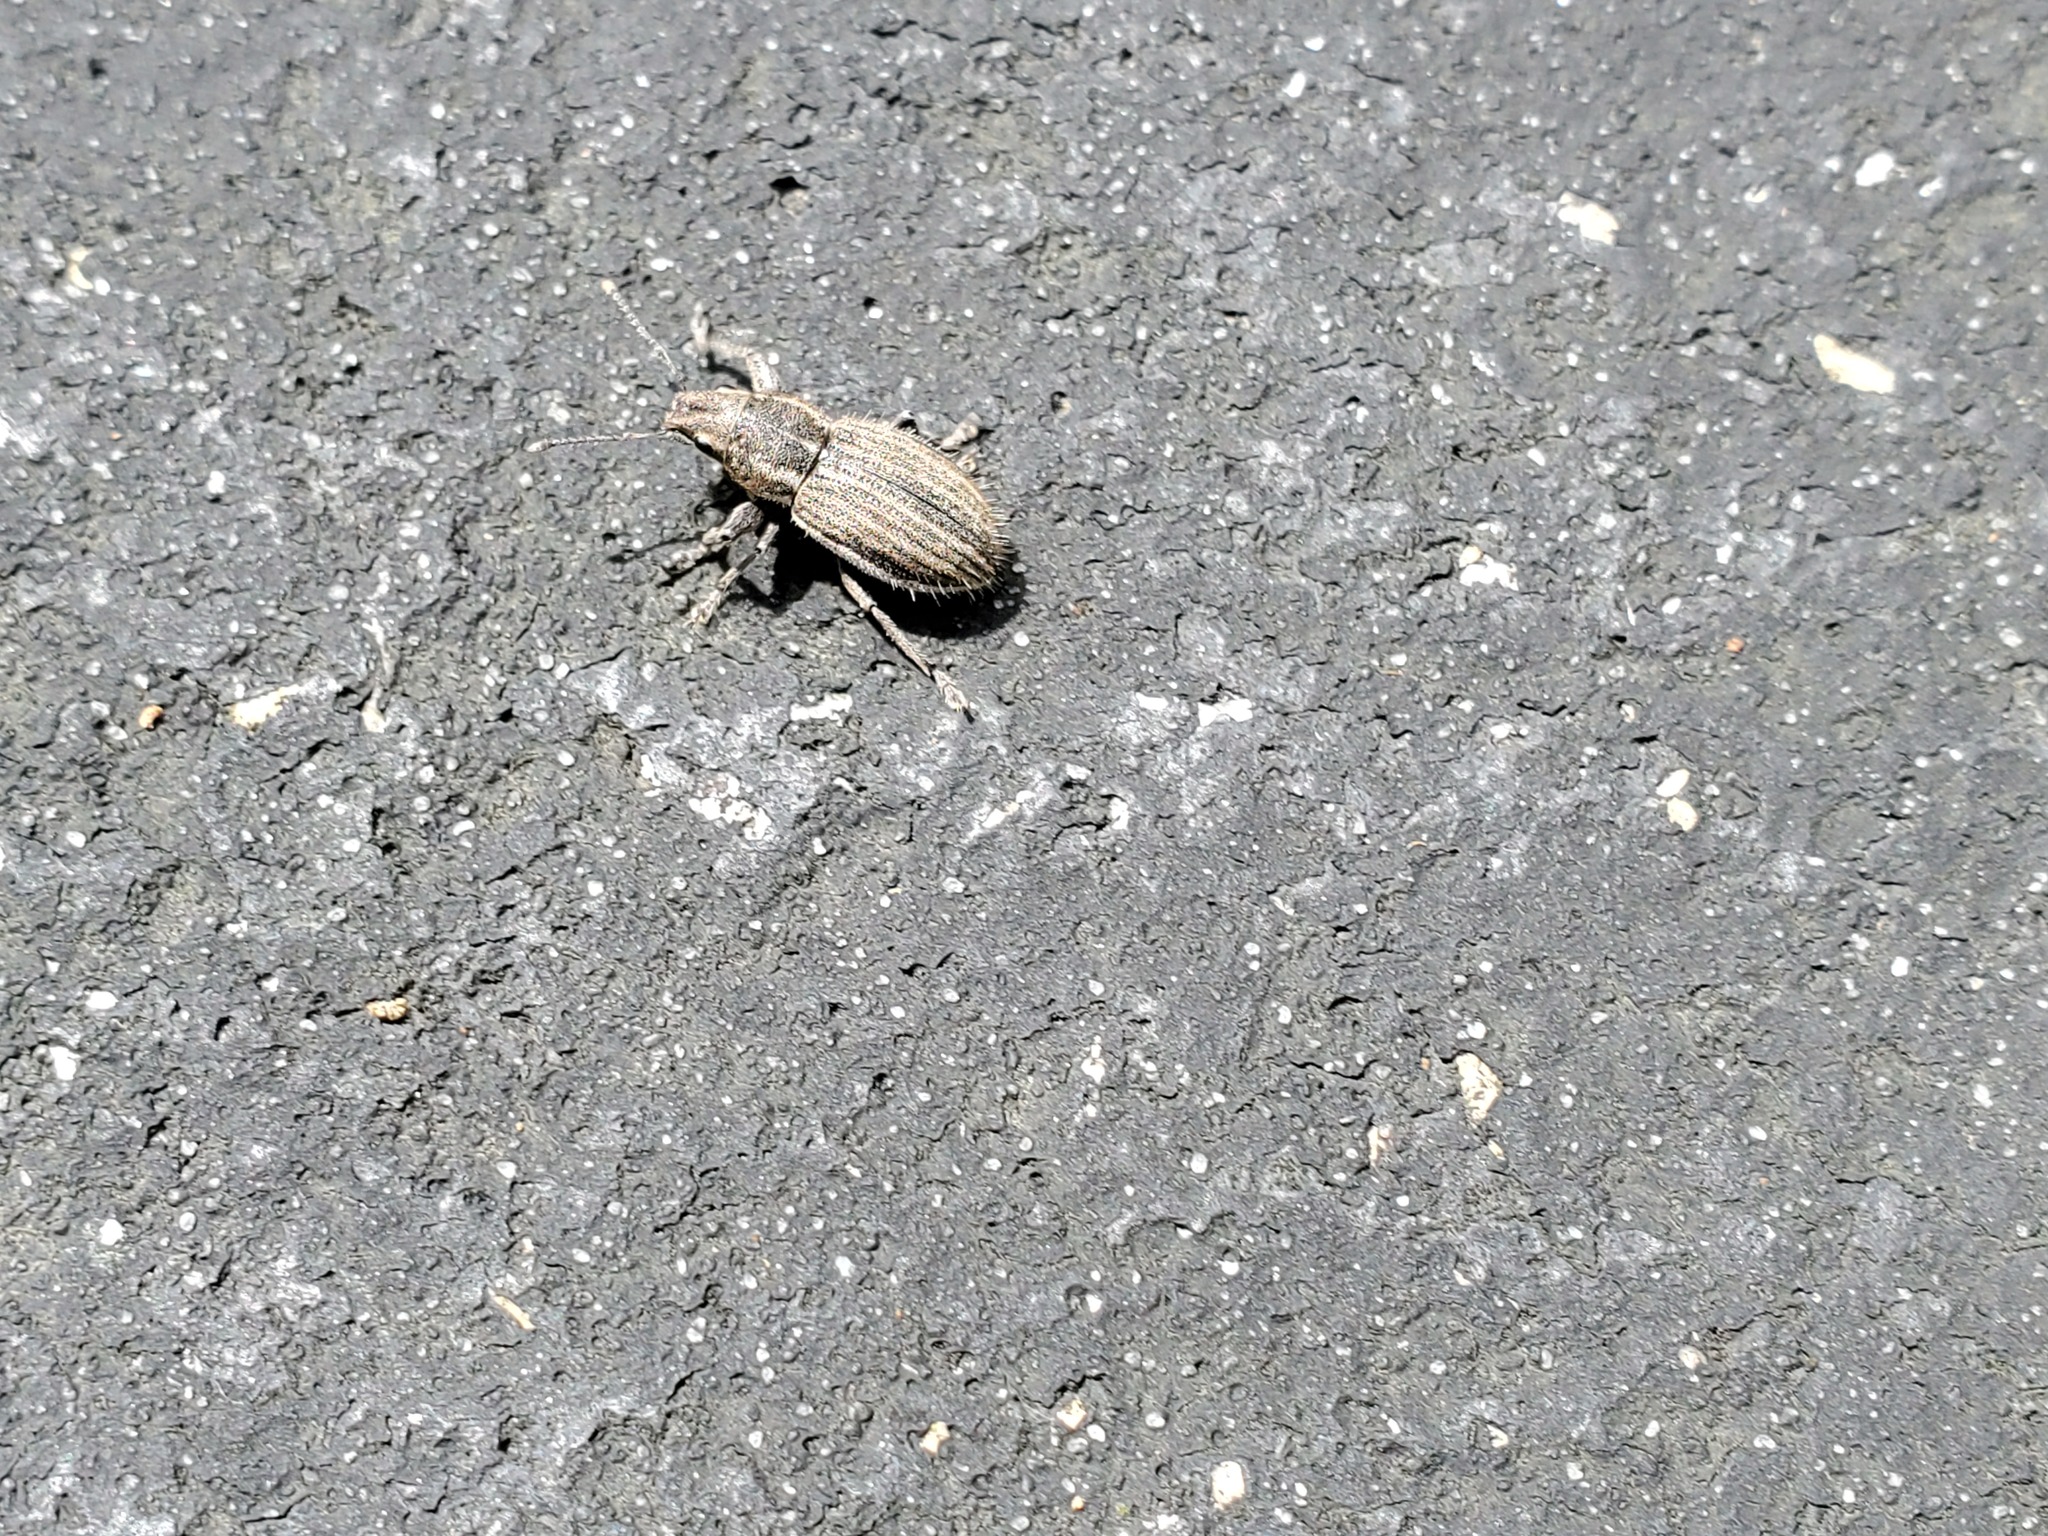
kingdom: Animalia
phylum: Arthropoda
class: Insecta
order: Coleoptera
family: Curculionidae
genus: Naupactus
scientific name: Naupactus leucoloma
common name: Whitefringed beetle
